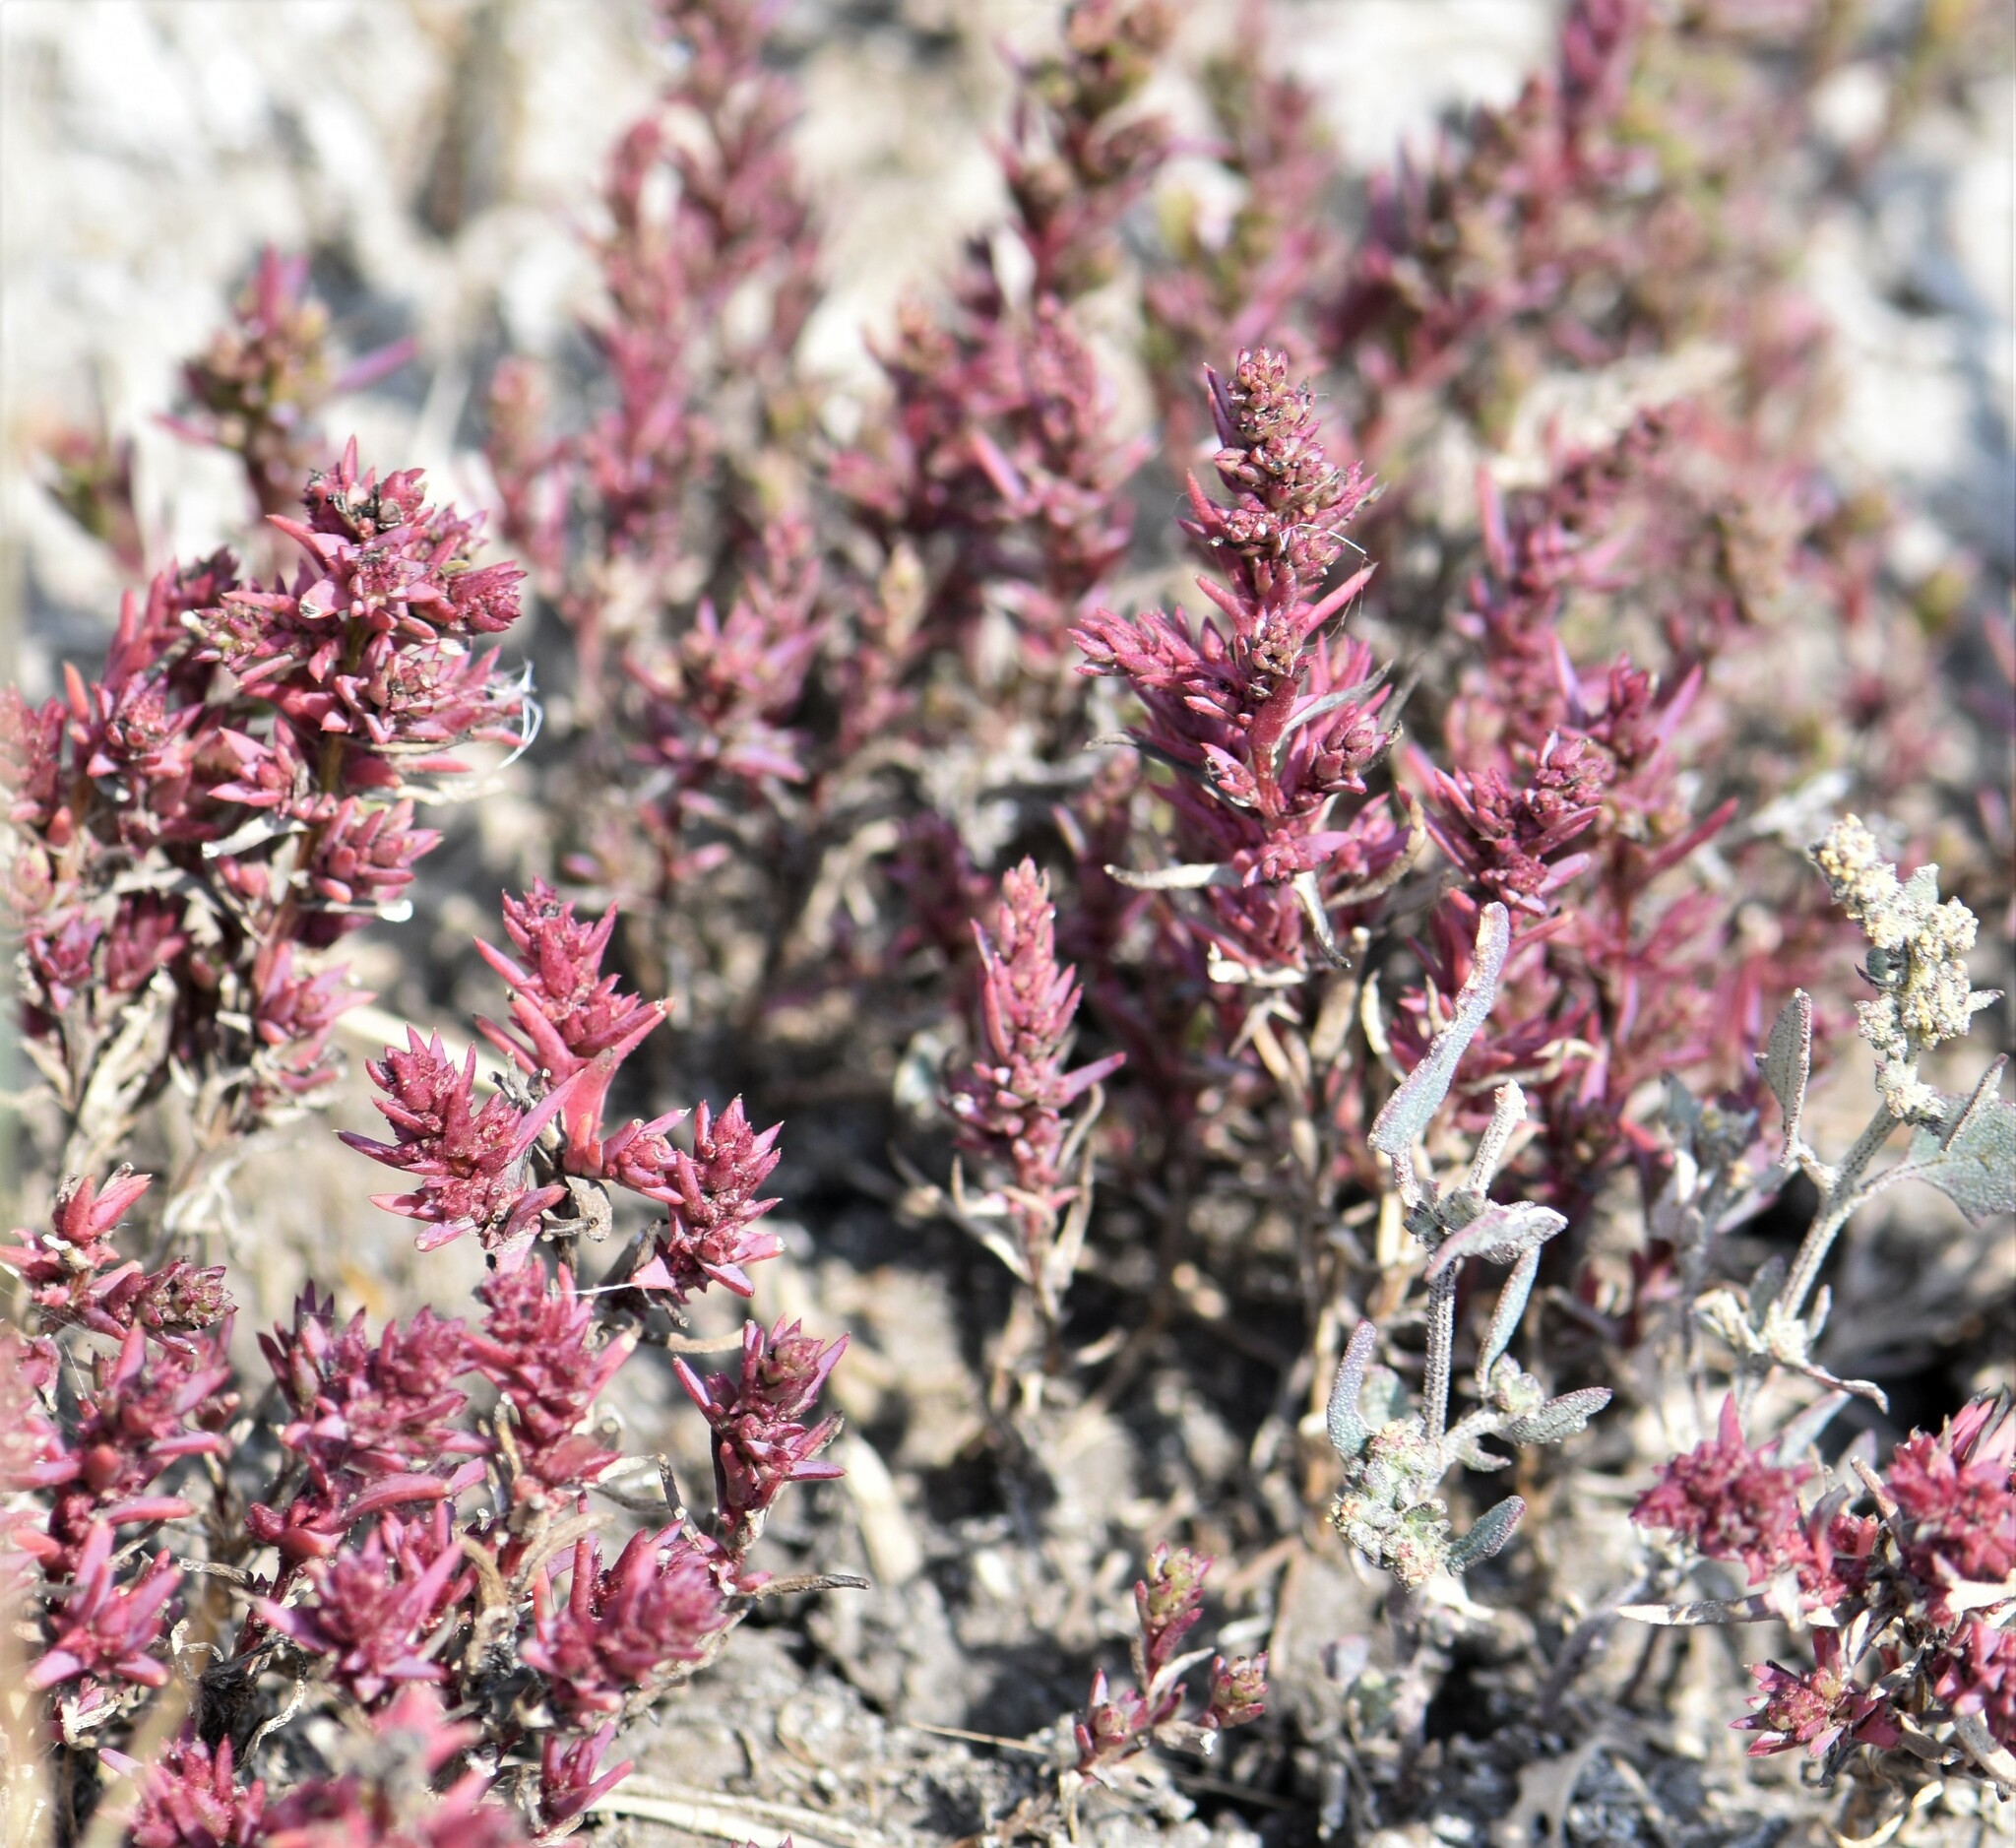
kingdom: Plantae
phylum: Tracheophyta
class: Magnoliopsida
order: Caryophyllales
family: Amaranthaceae
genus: Suaeda
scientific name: Suaeda calceoliformis
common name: Pursh's seepweed
